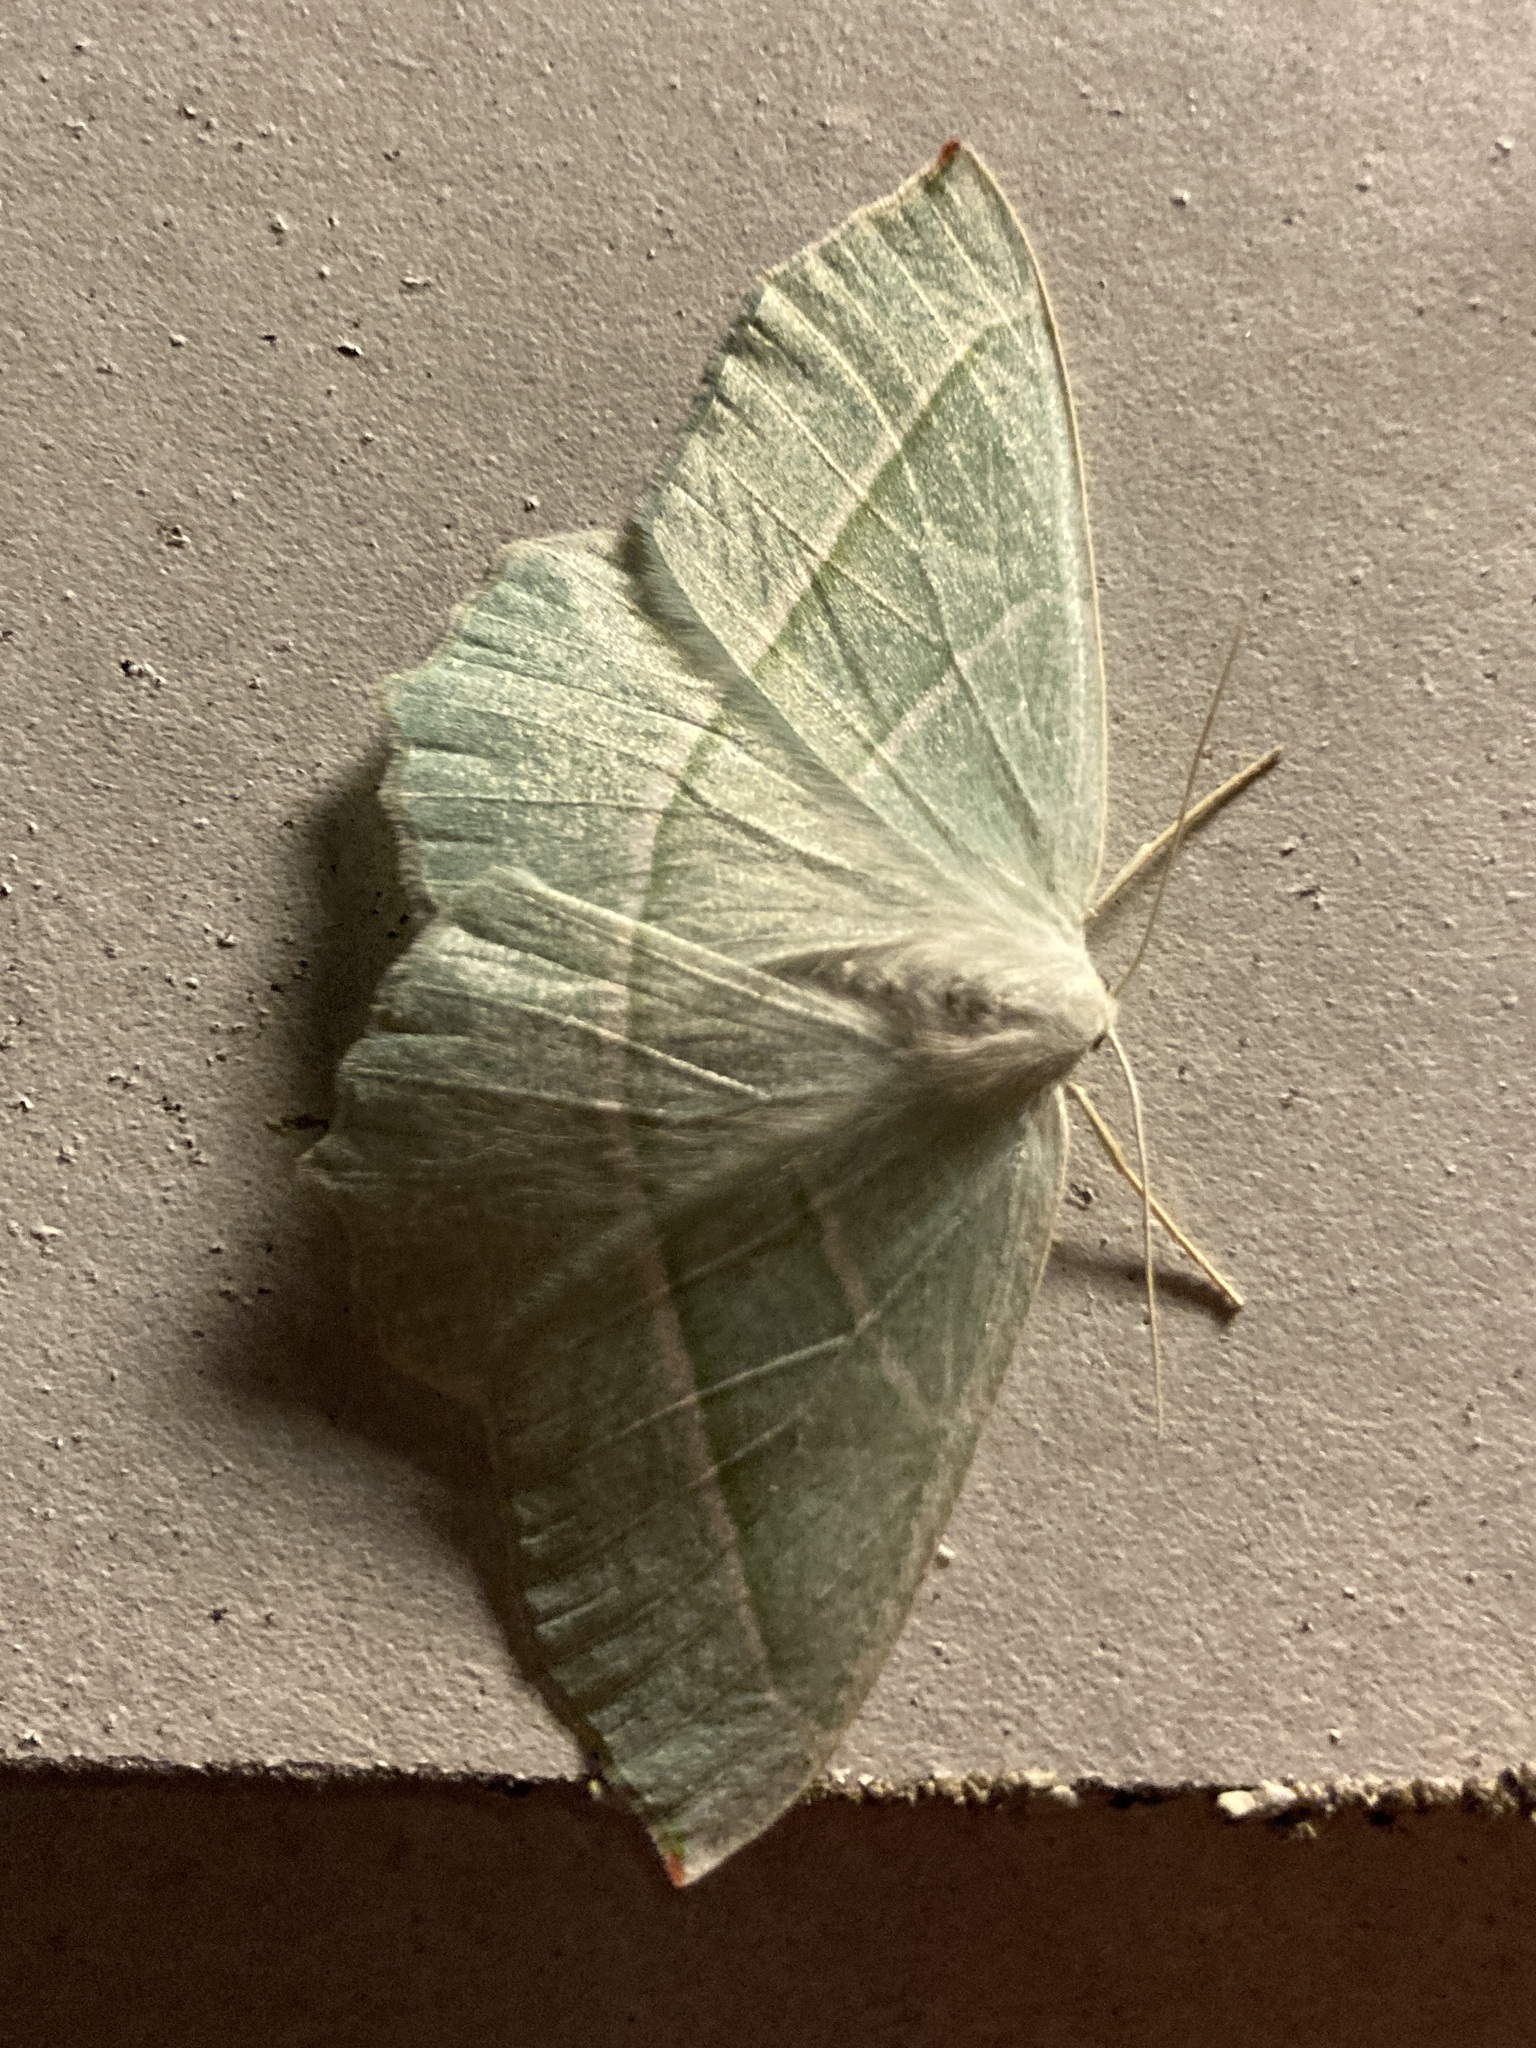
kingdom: Animalia
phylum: Arthropoda
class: Insecta
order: Lepidoptera
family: Geometridae
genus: Campaea
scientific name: Campaea margaritaria
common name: Light emerald
